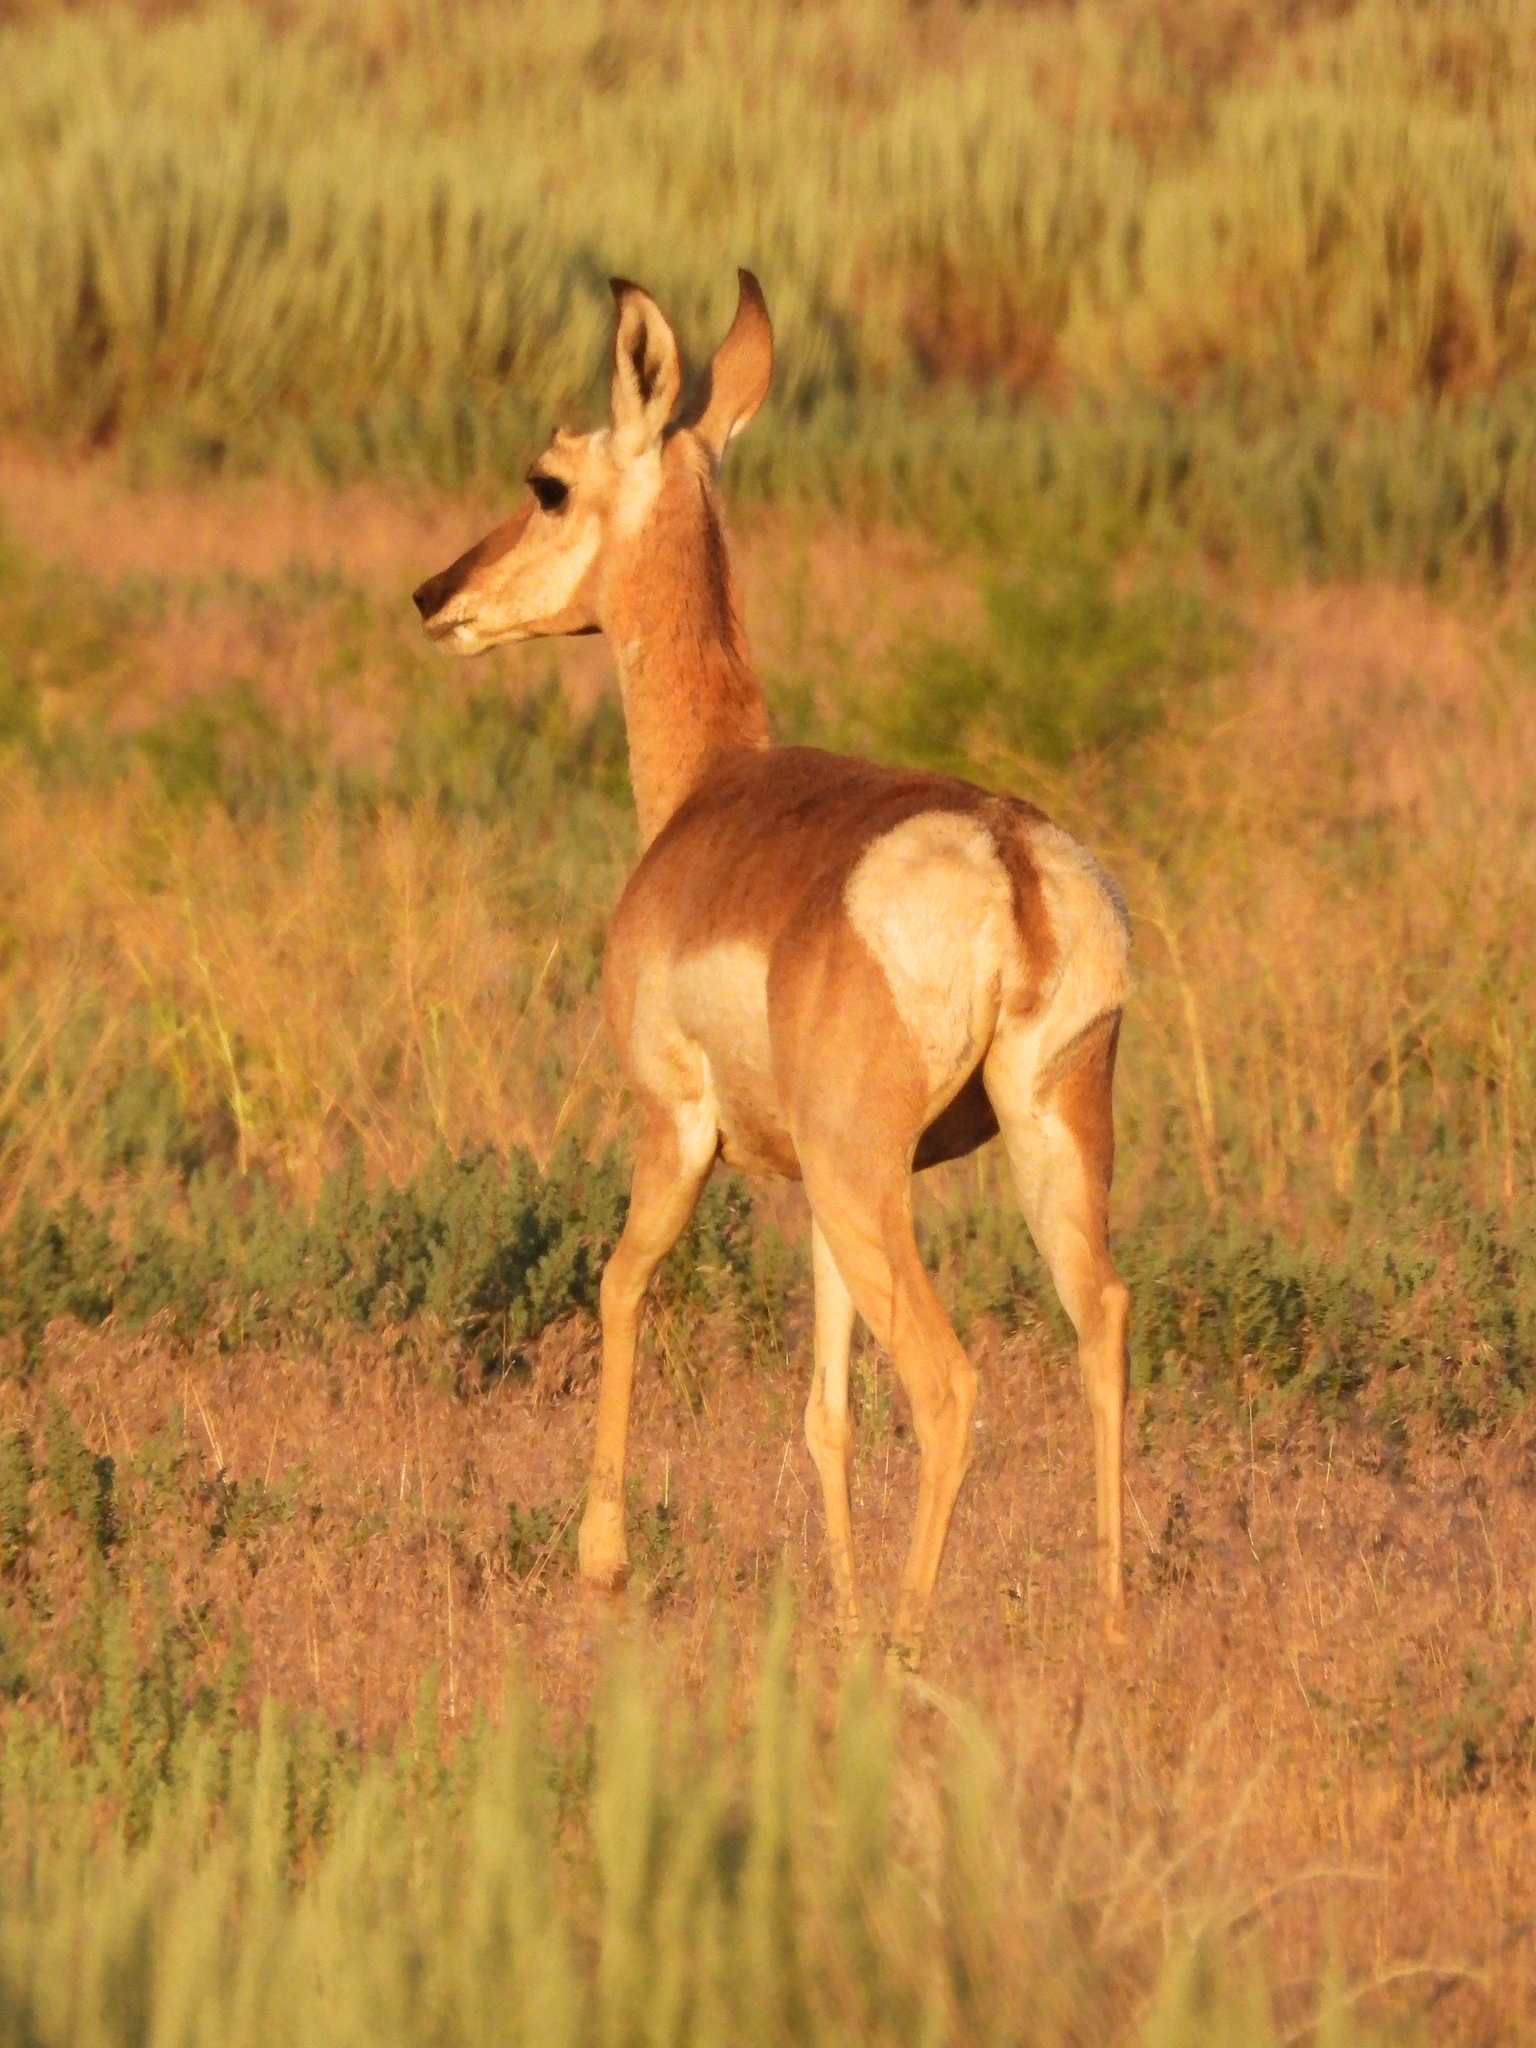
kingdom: Animalia
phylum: Chordata
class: Mammalia
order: Artiodactyla
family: Antilocapridae
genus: Antilocapra
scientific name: Antilocapra americana
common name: Pronghorn
